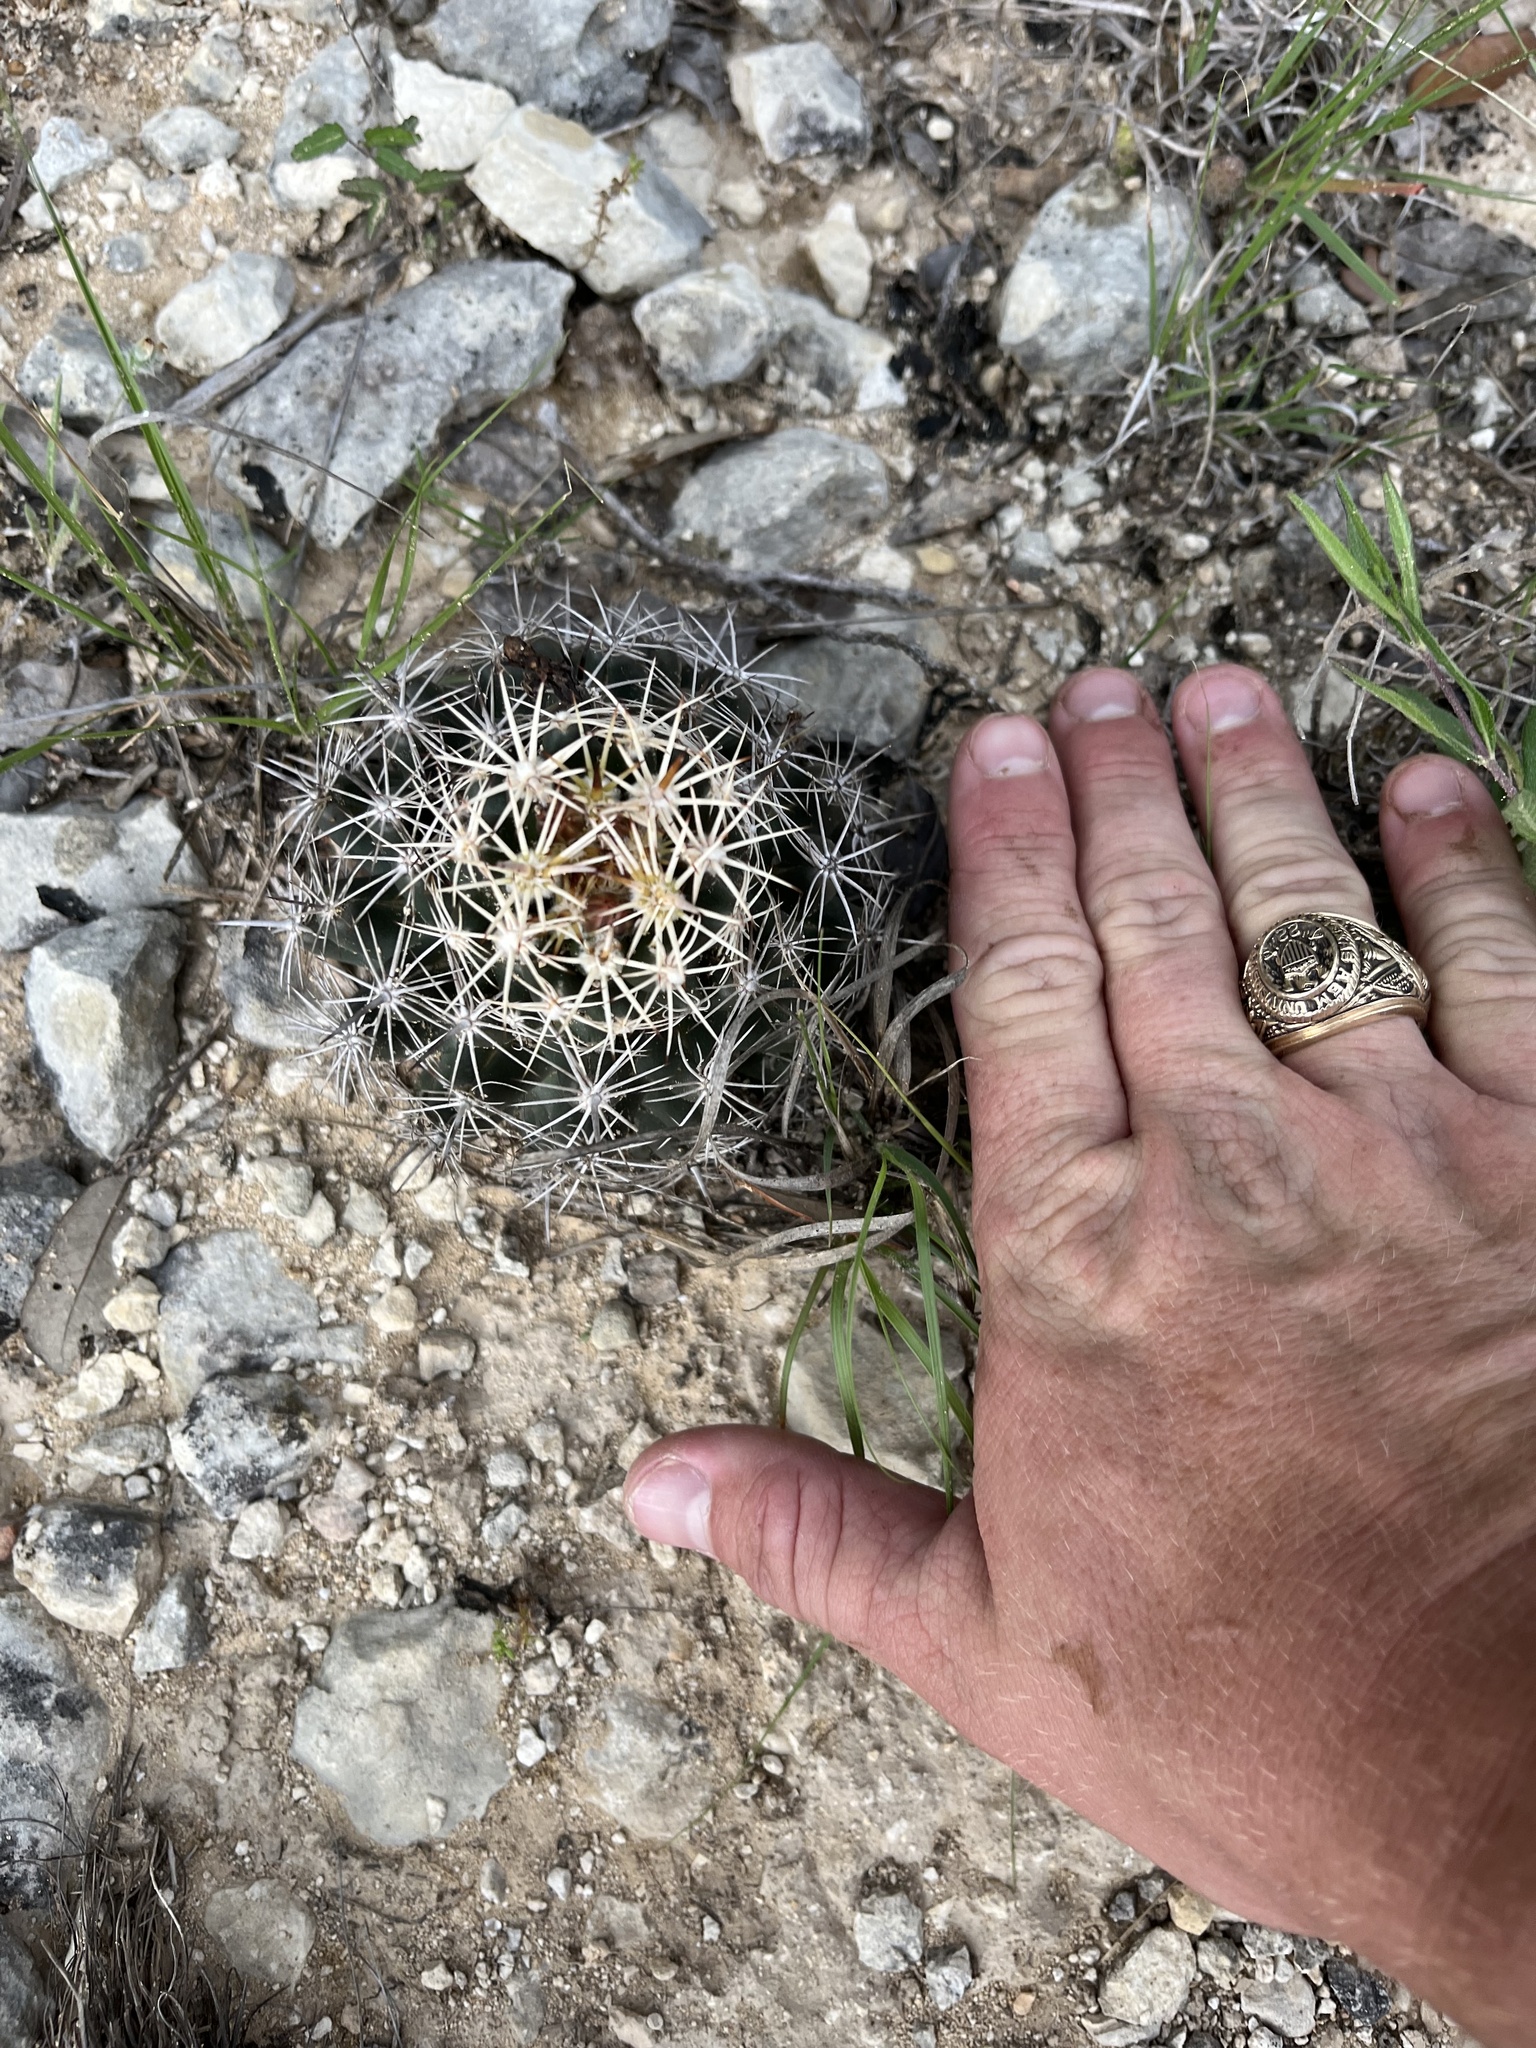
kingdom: Plantae
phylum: Tracheophyta
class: Magnoliopsida
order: Caryophyllales
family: Cactaceae
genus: Coryphantha
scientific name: Coryphantha sulcata
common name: Finger cactus
